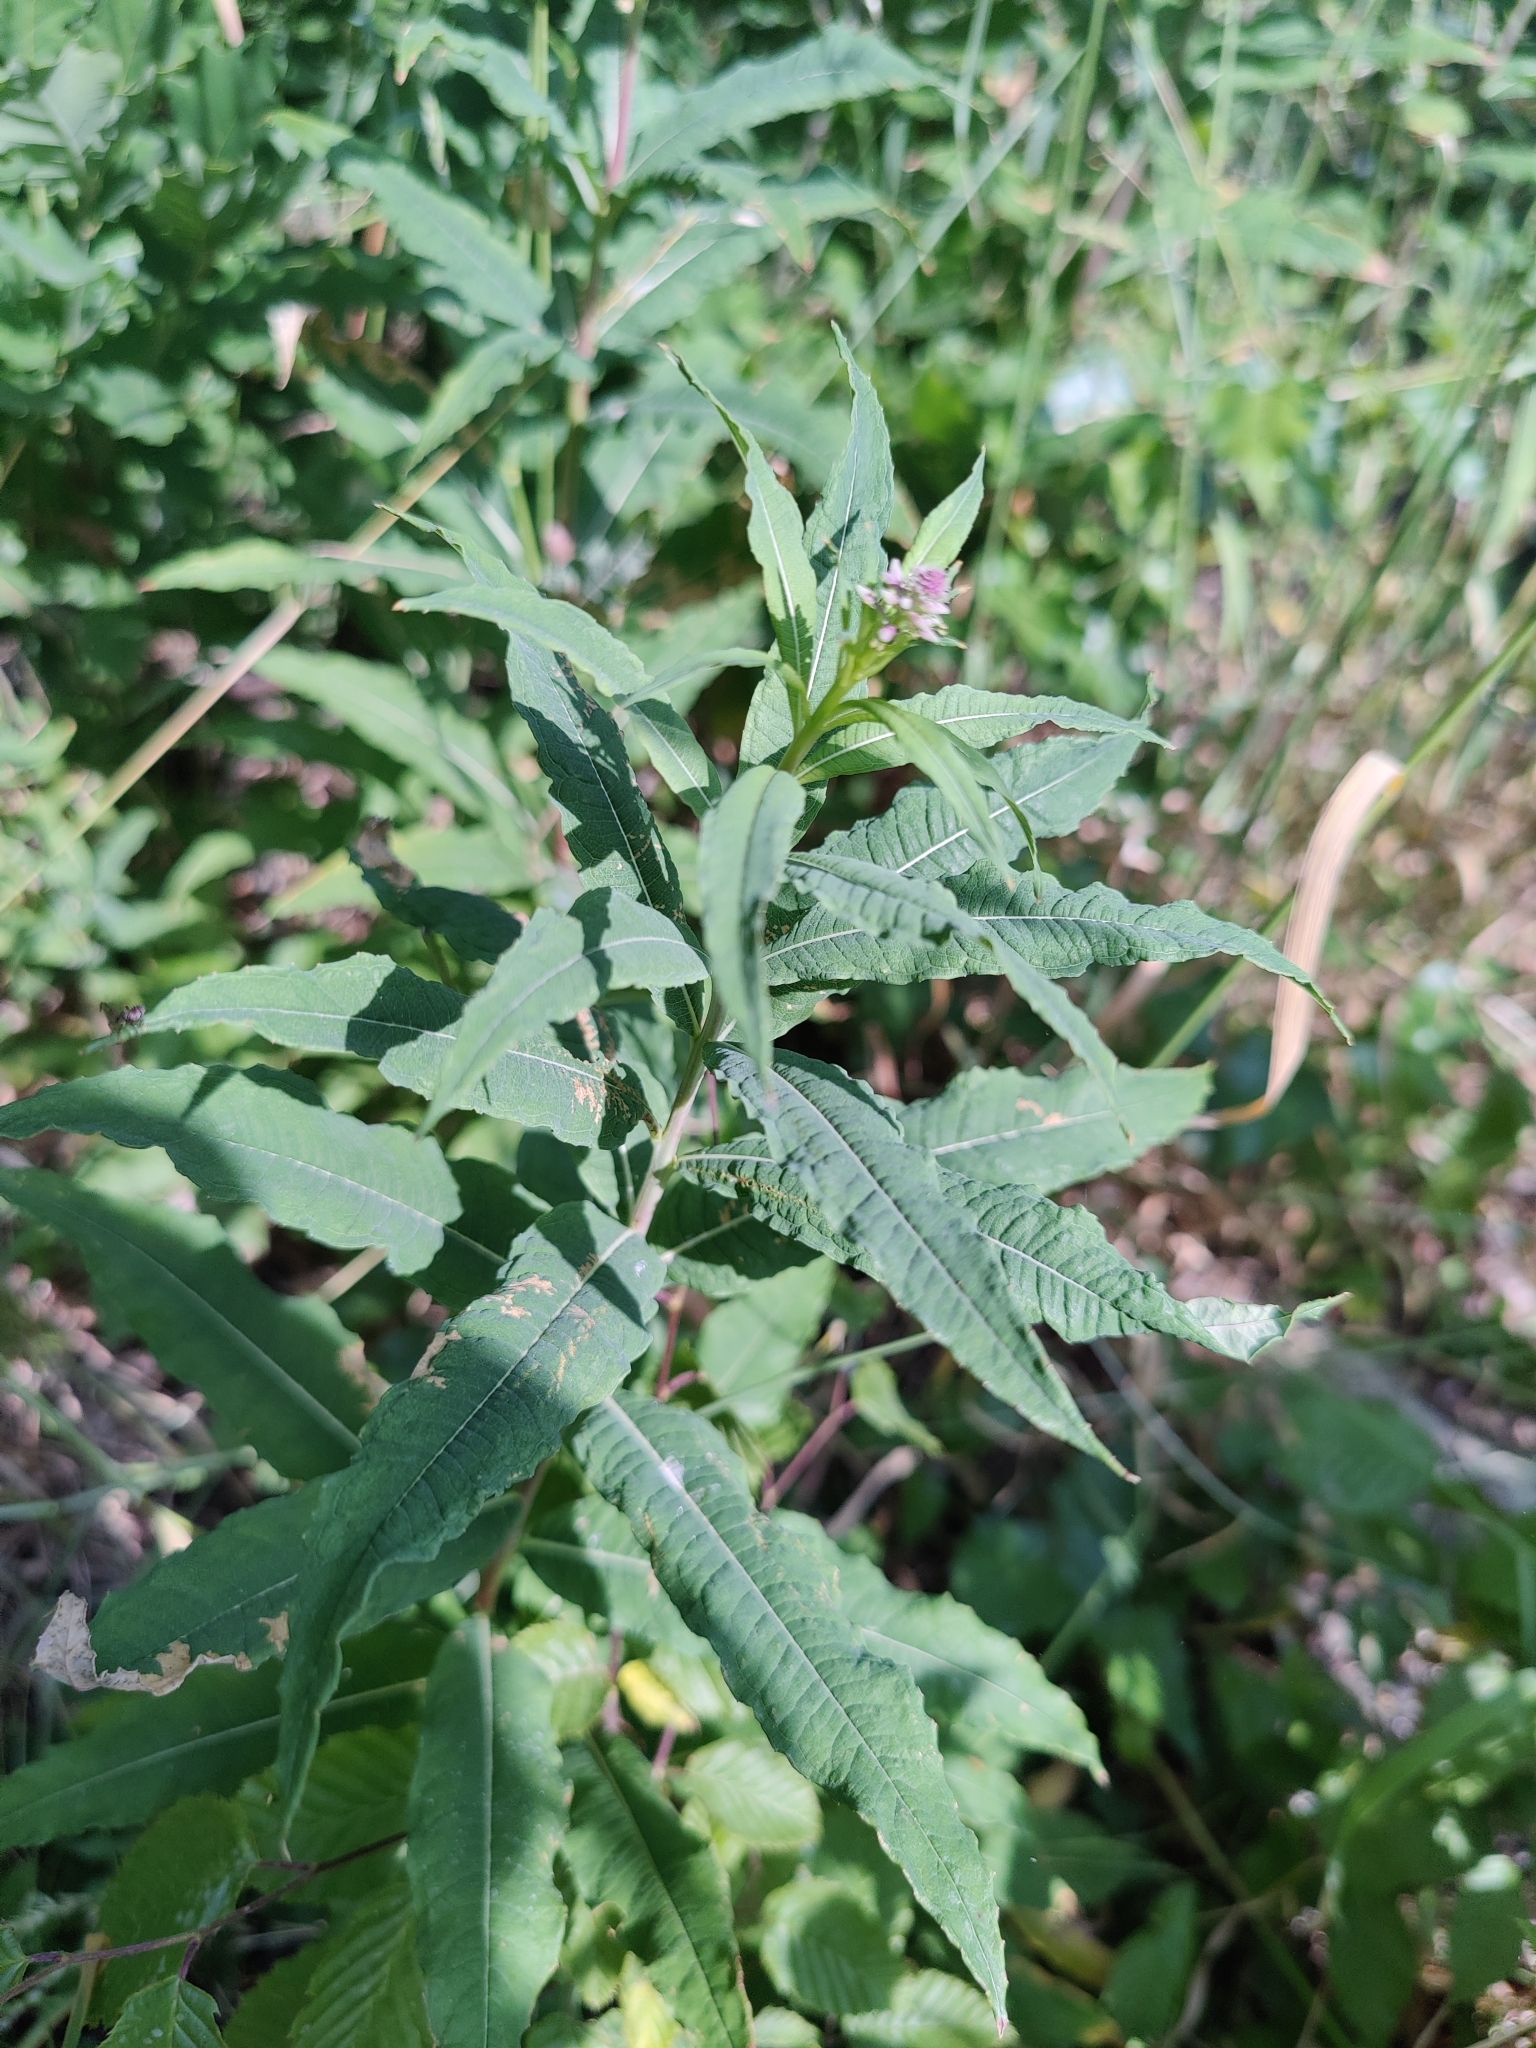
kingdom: Plantae
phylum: Tracheophyta
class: Magnoliopsida
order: Myrtales
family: Onagraceae
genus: Chamaenerion
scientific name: Chamaenerion angustifolium
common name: Fireweed
